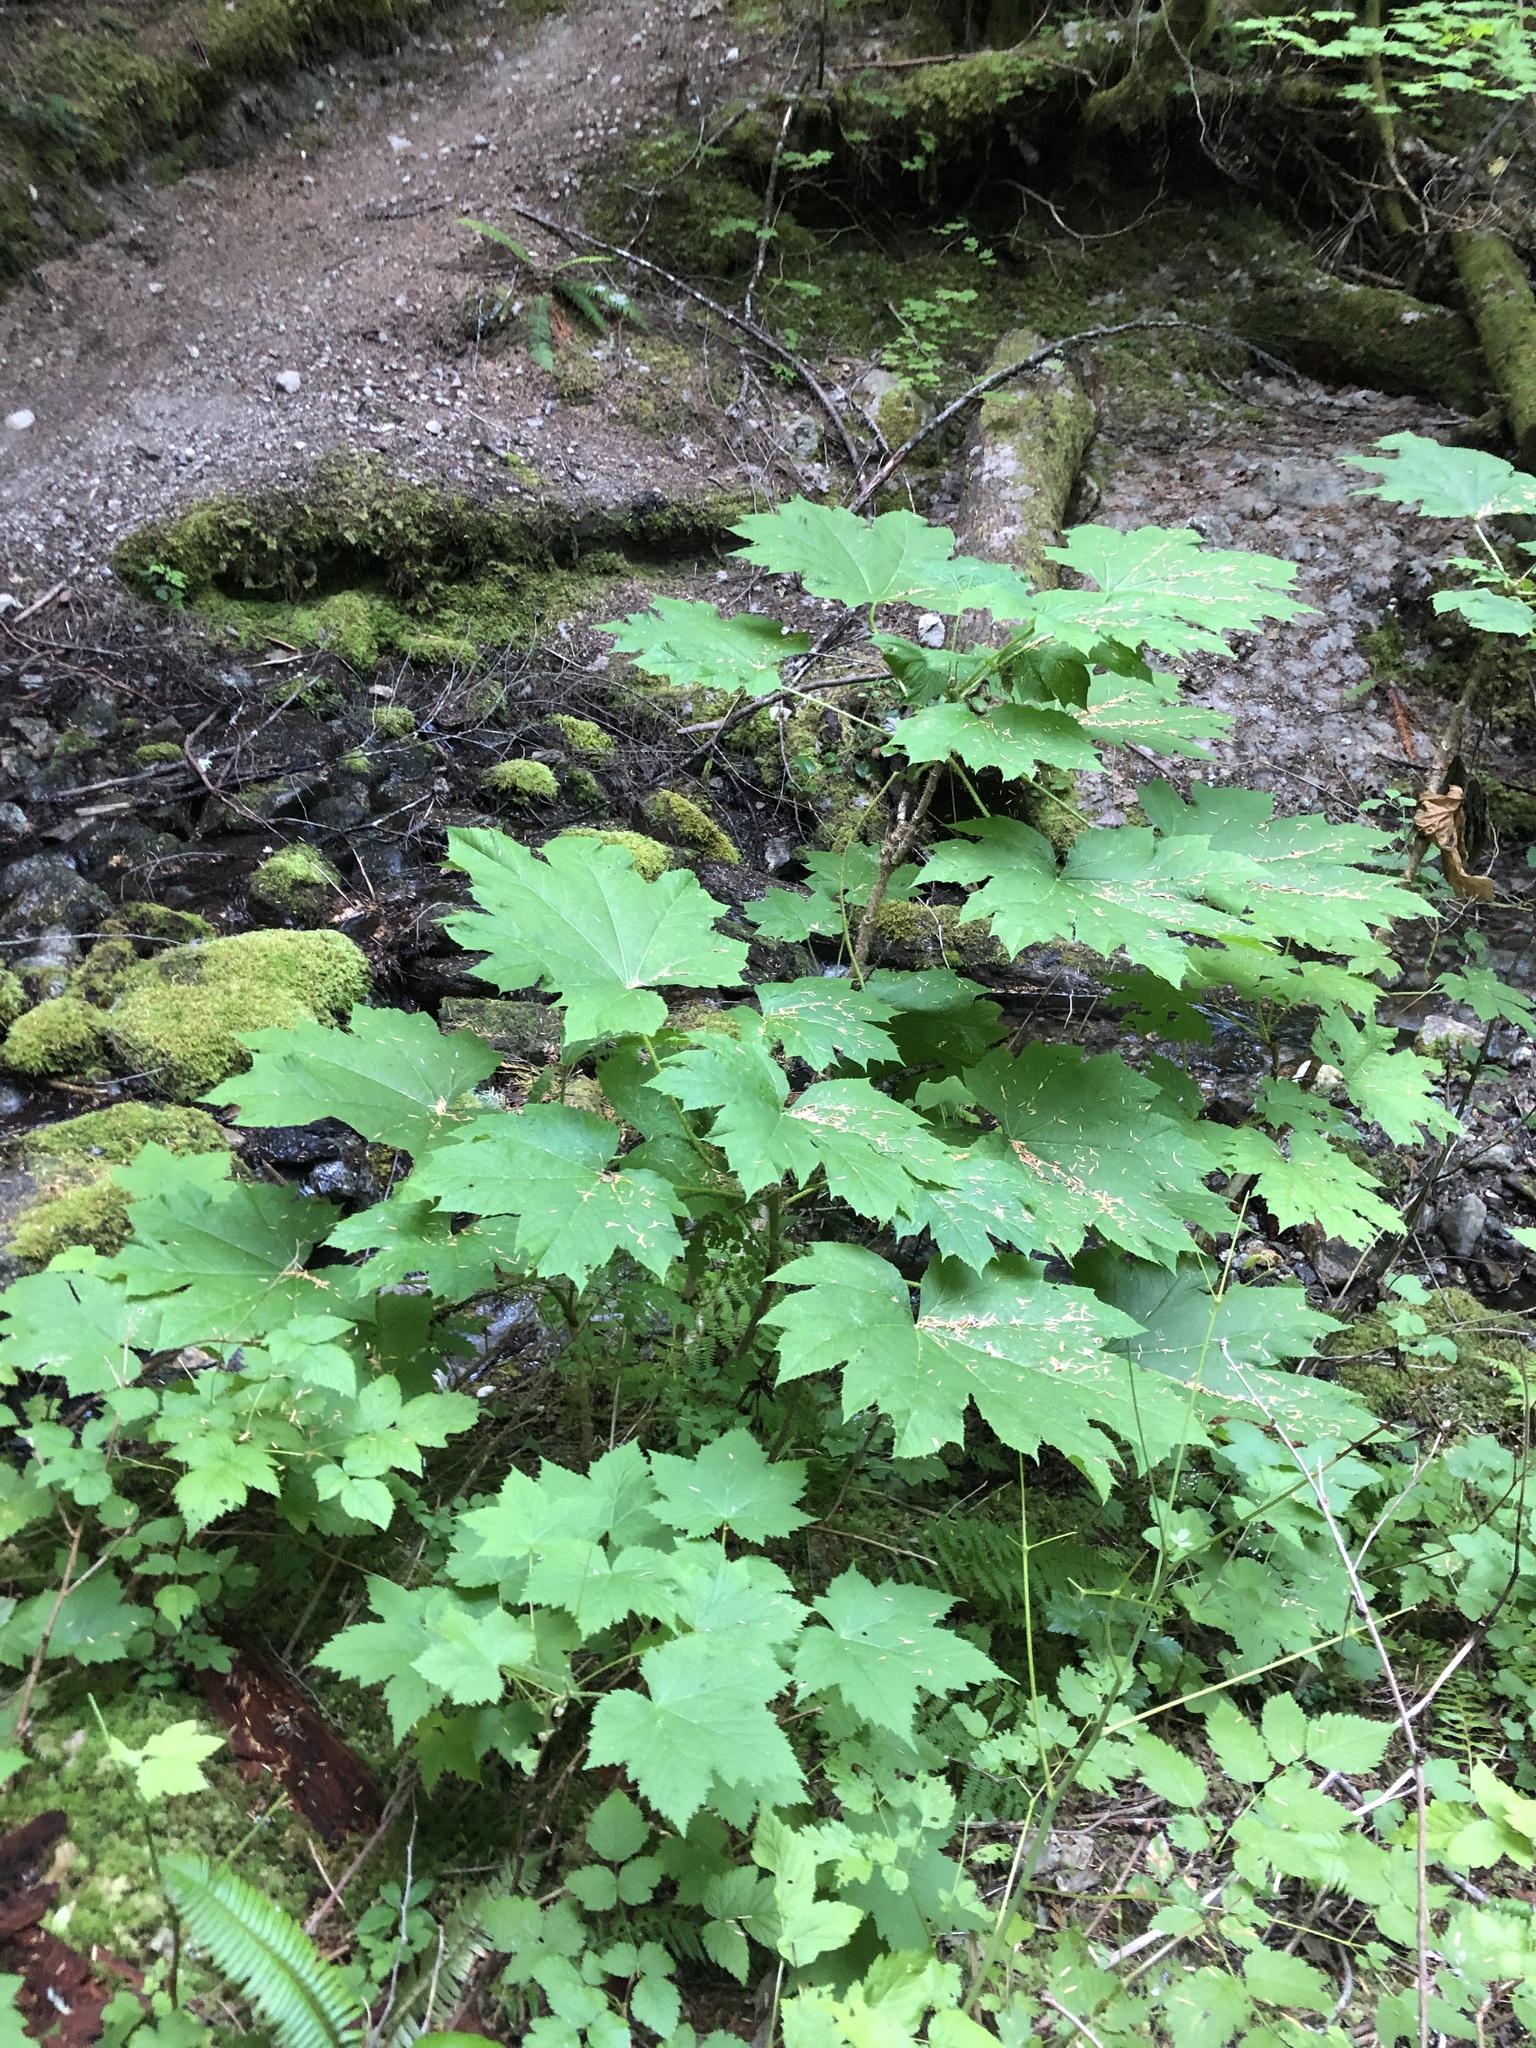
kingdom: Plantae
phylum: Tracheophyta
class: Magnoliopsida
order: Apiales
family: Araliaceae
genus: Oplopanax
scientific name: Oplopanax horridus
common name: Devil's walking-stick
